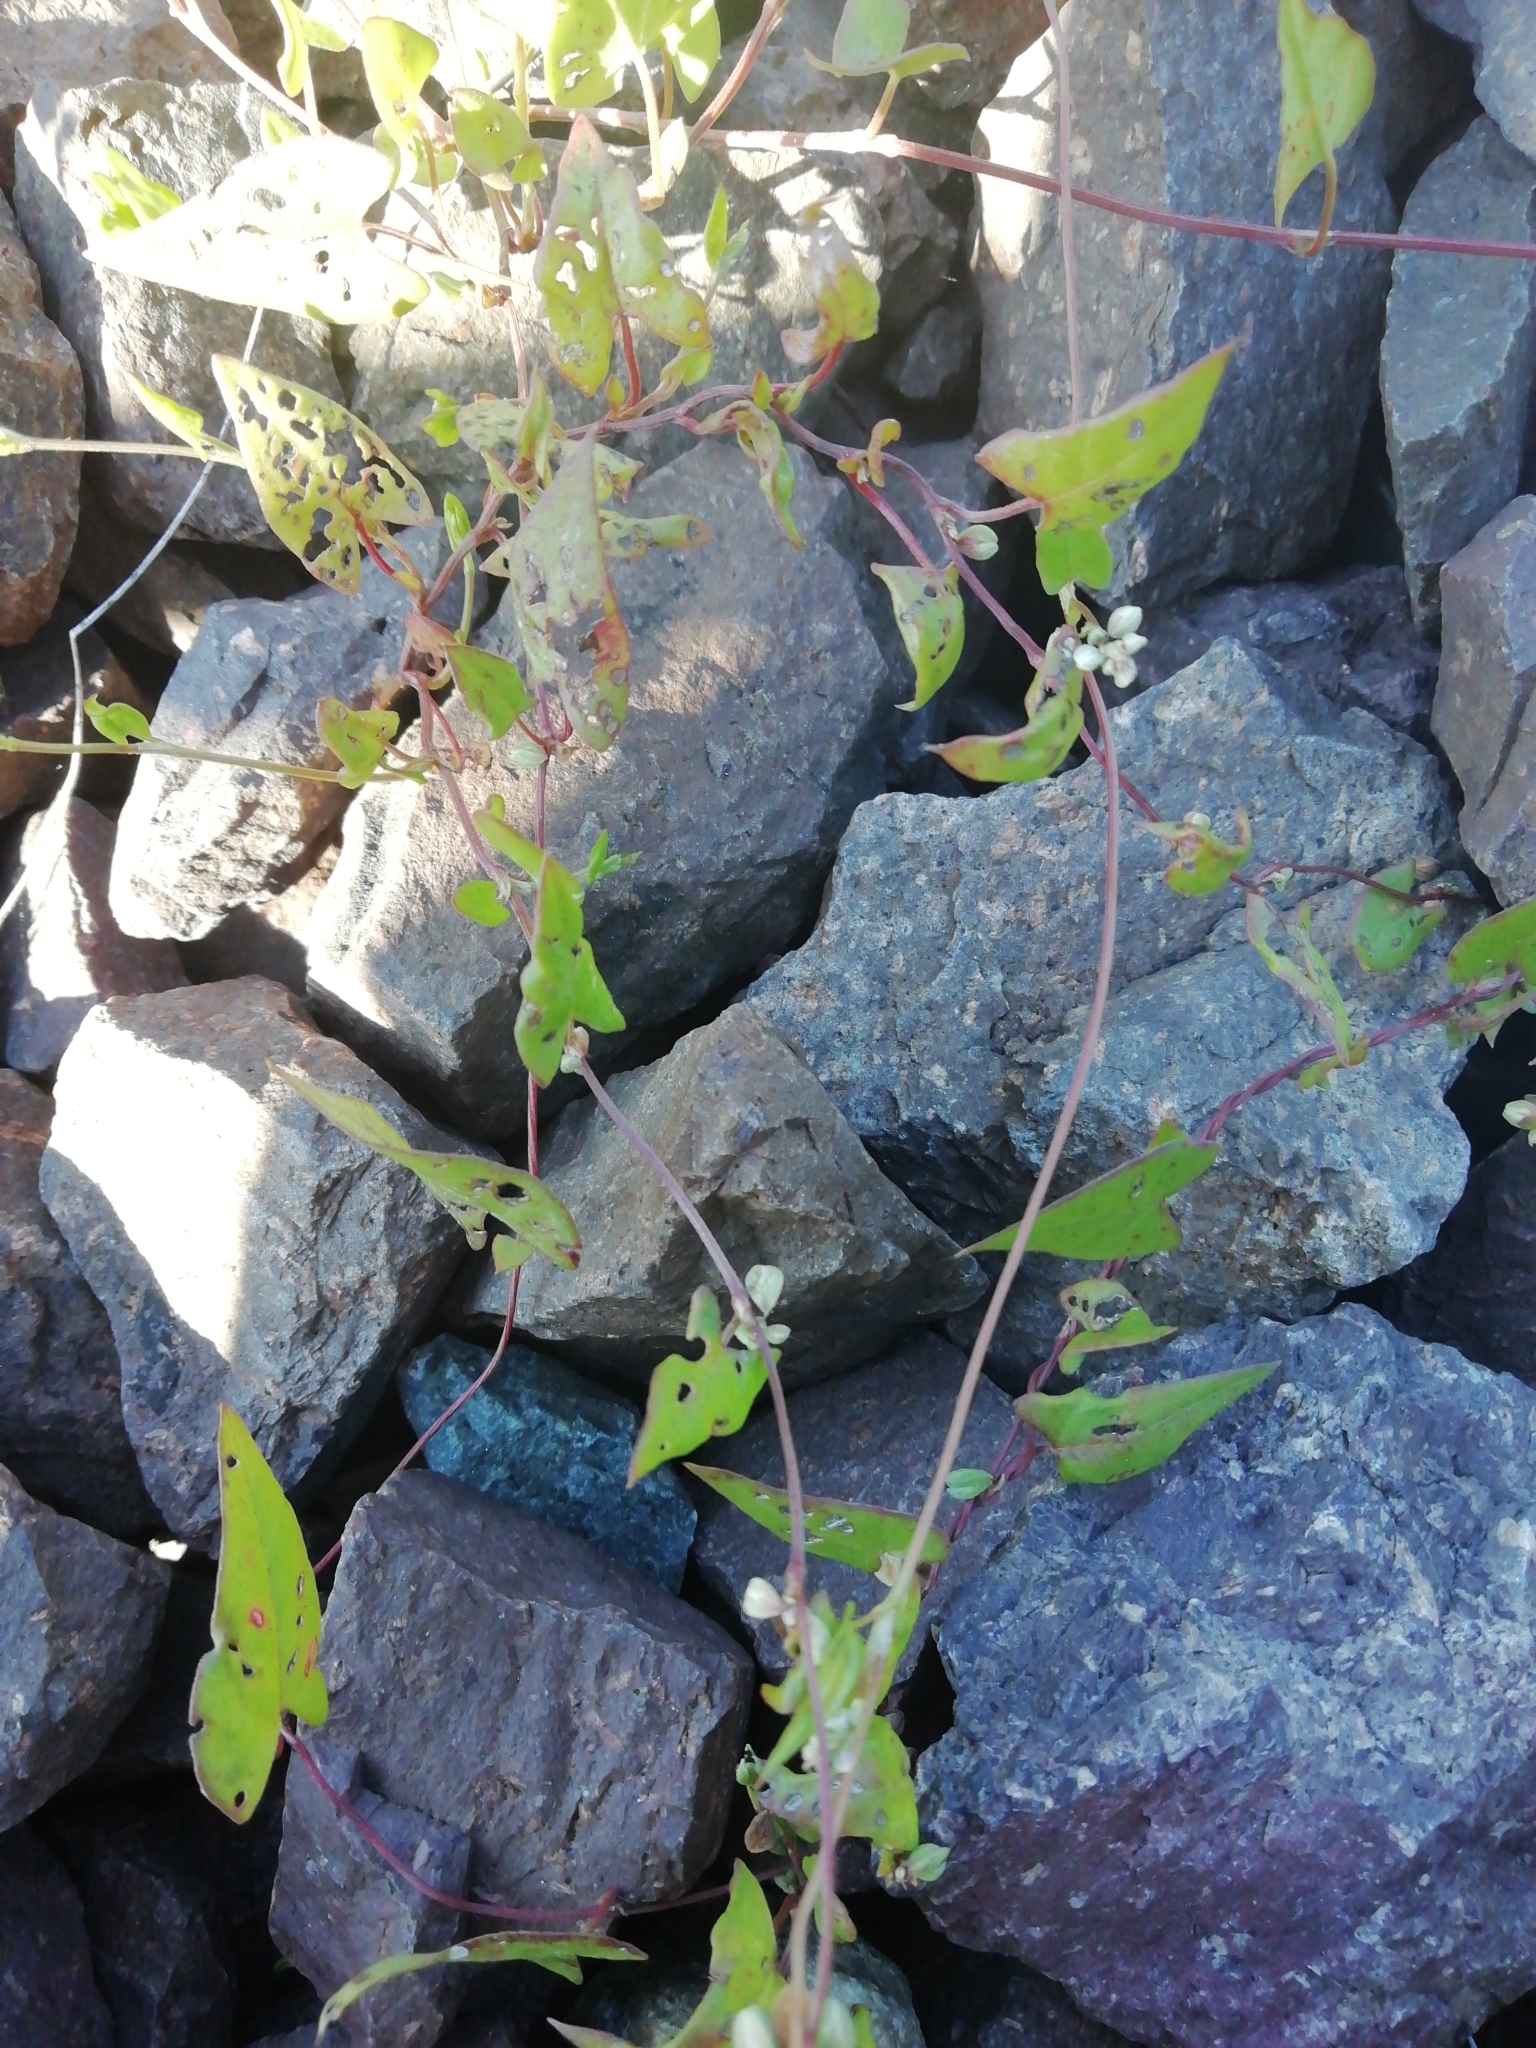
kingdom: Plantae
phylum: Tracheophyta
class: Magnoliopsida
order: Caryophyllales
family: Polygonaceae
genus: Fallopia
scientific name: Fallopia convolvulus
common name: Black bindweed
